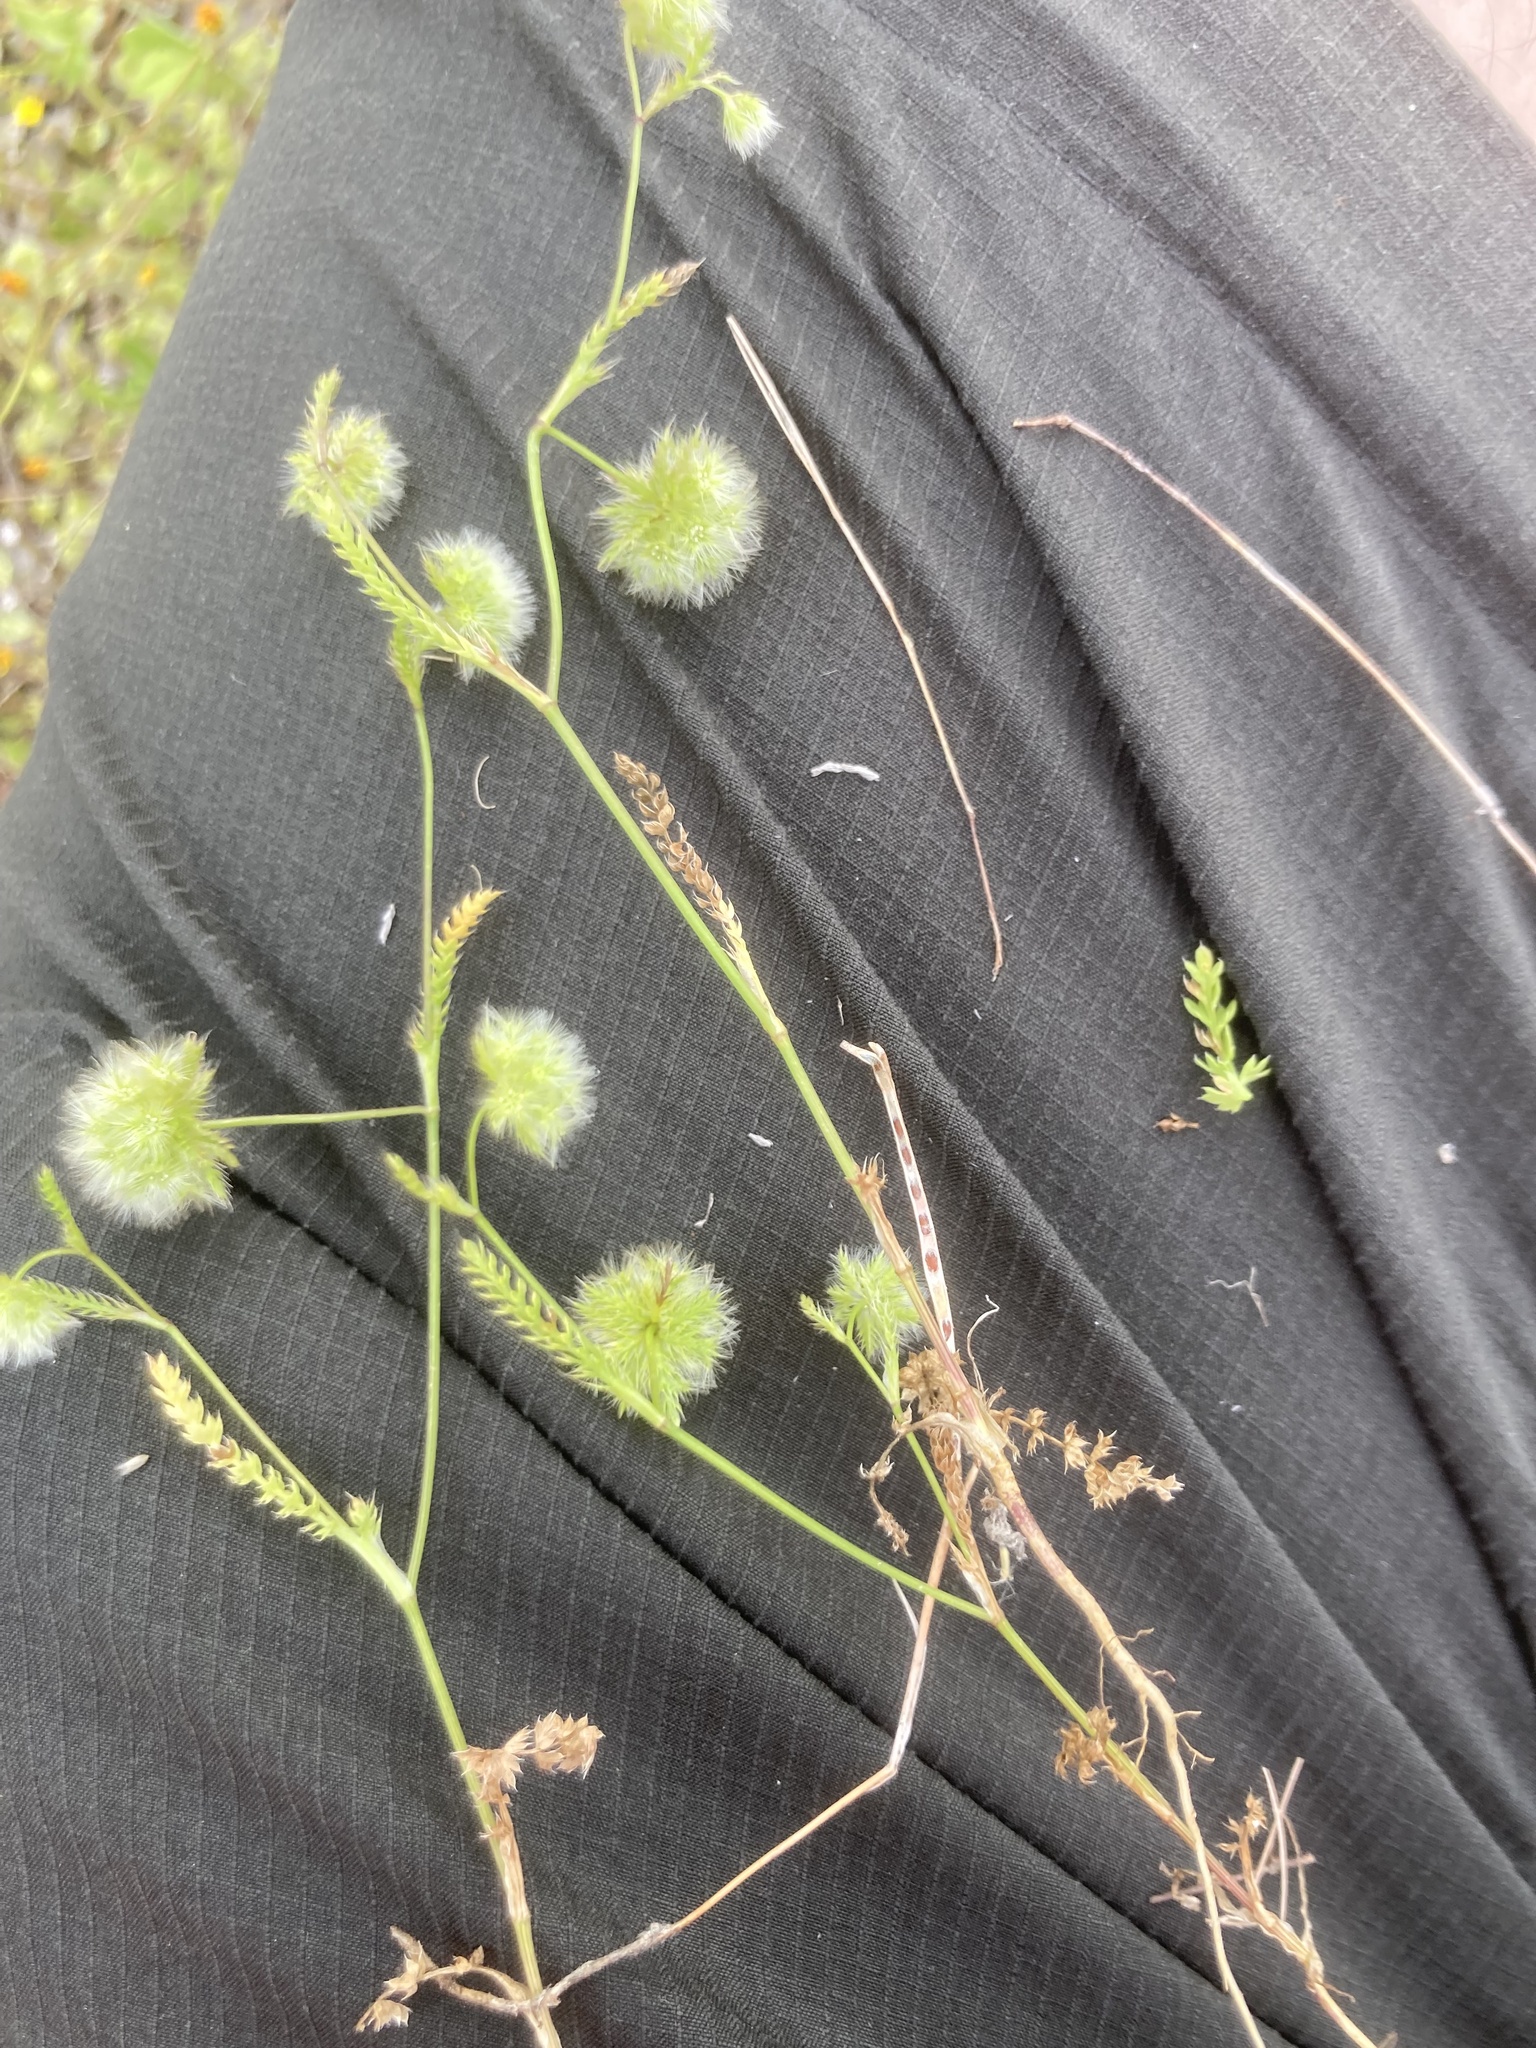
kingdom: Plantae
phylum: Tracheophyta
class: Magnoliopsida
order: Apiales
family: Apiaceae
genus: Lagoecia
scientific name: Lagoecia cuminoides
